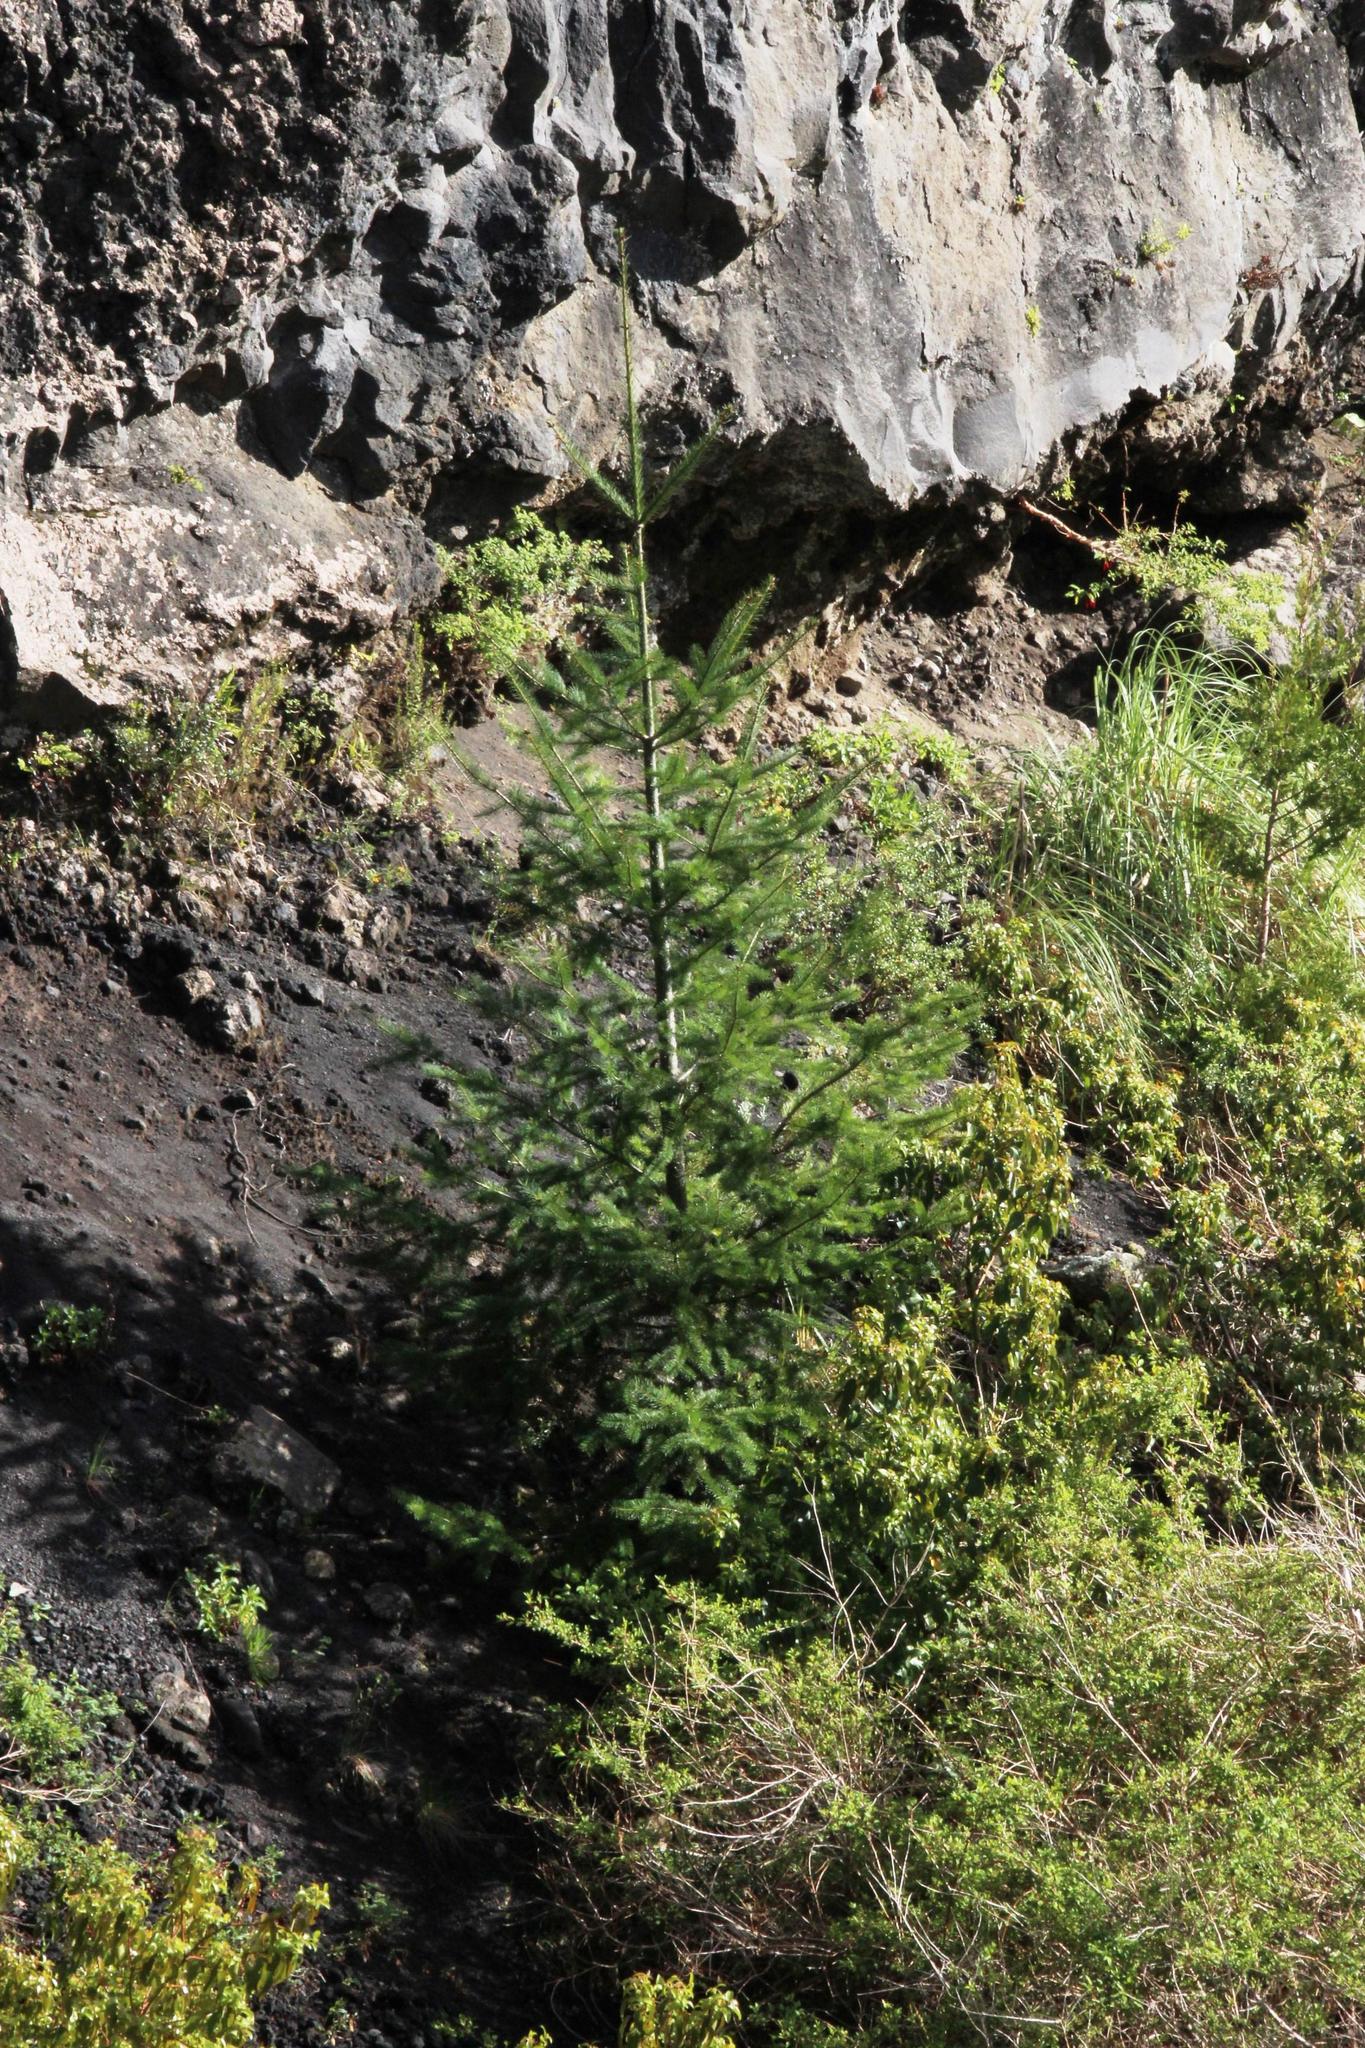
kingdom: Plantae
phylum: Tracheophyta
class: Pinopsida
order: Pinales
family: Pinaceae
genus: Pseudotsuga
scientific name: Pseudotsuga menziesii
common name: Douglas fir
